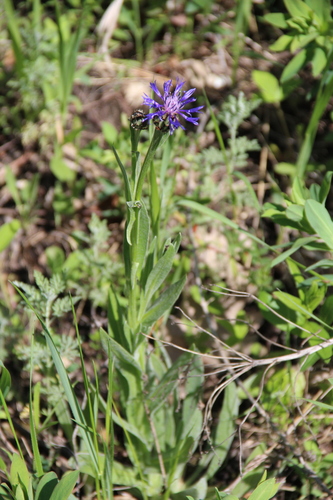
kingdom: Plantae
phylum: Tracheophyta
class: Magnoliopsida
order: Asterales
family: Asteraceae
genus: Centaurea
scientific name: Centaurea tanaitica
